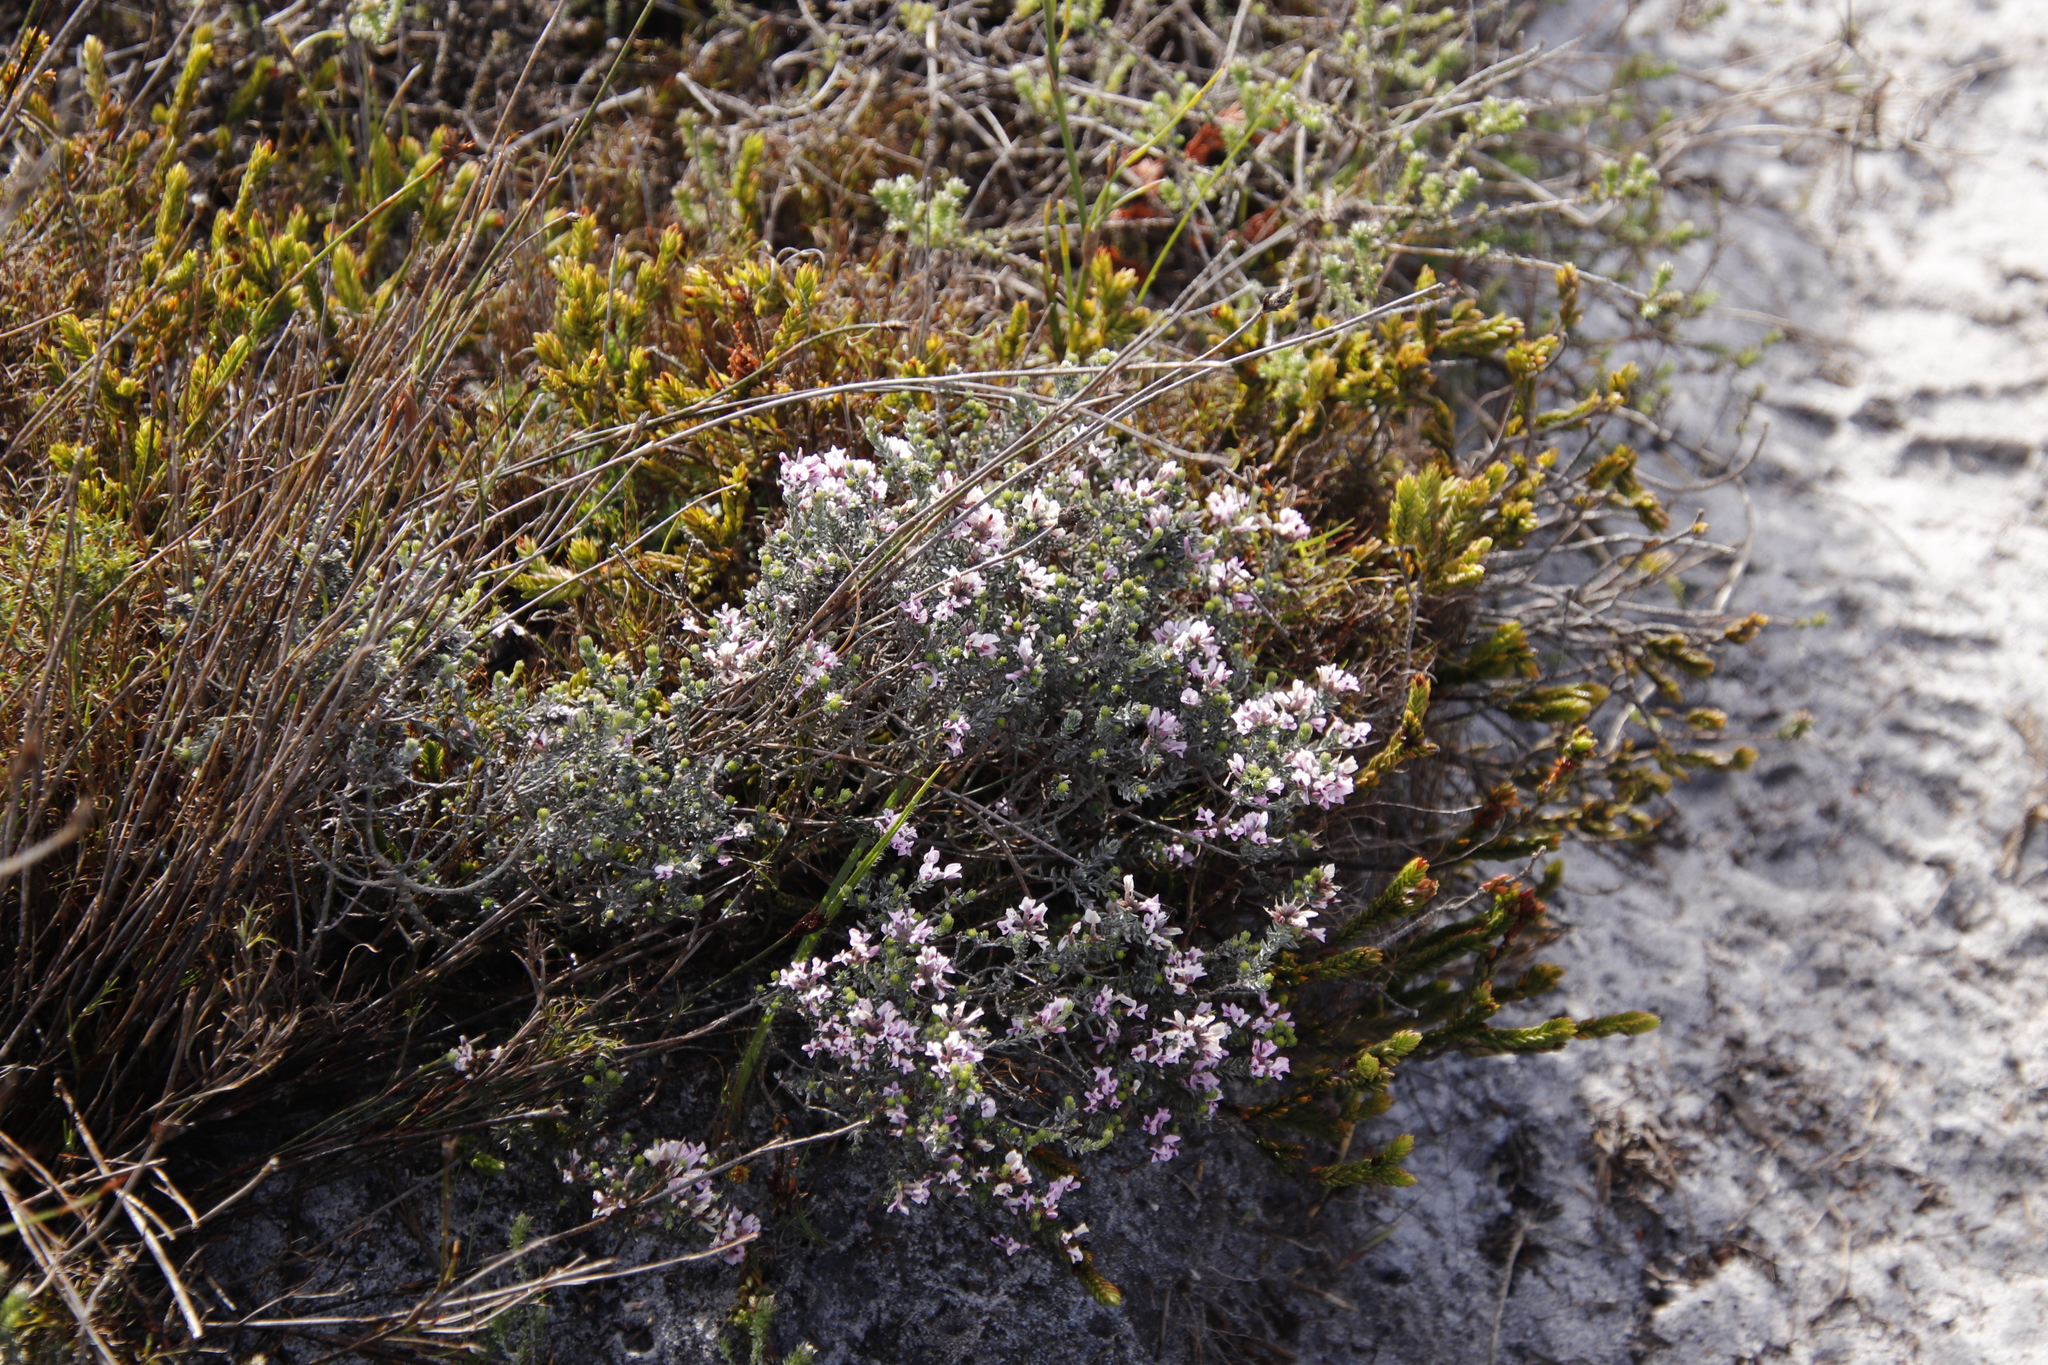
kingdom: Plantae
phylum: Tracheophyta
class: Magnoliopsida
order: Fabales
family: Fabaceae
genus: Amphithalea
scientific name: Amphithalea ericifolia
